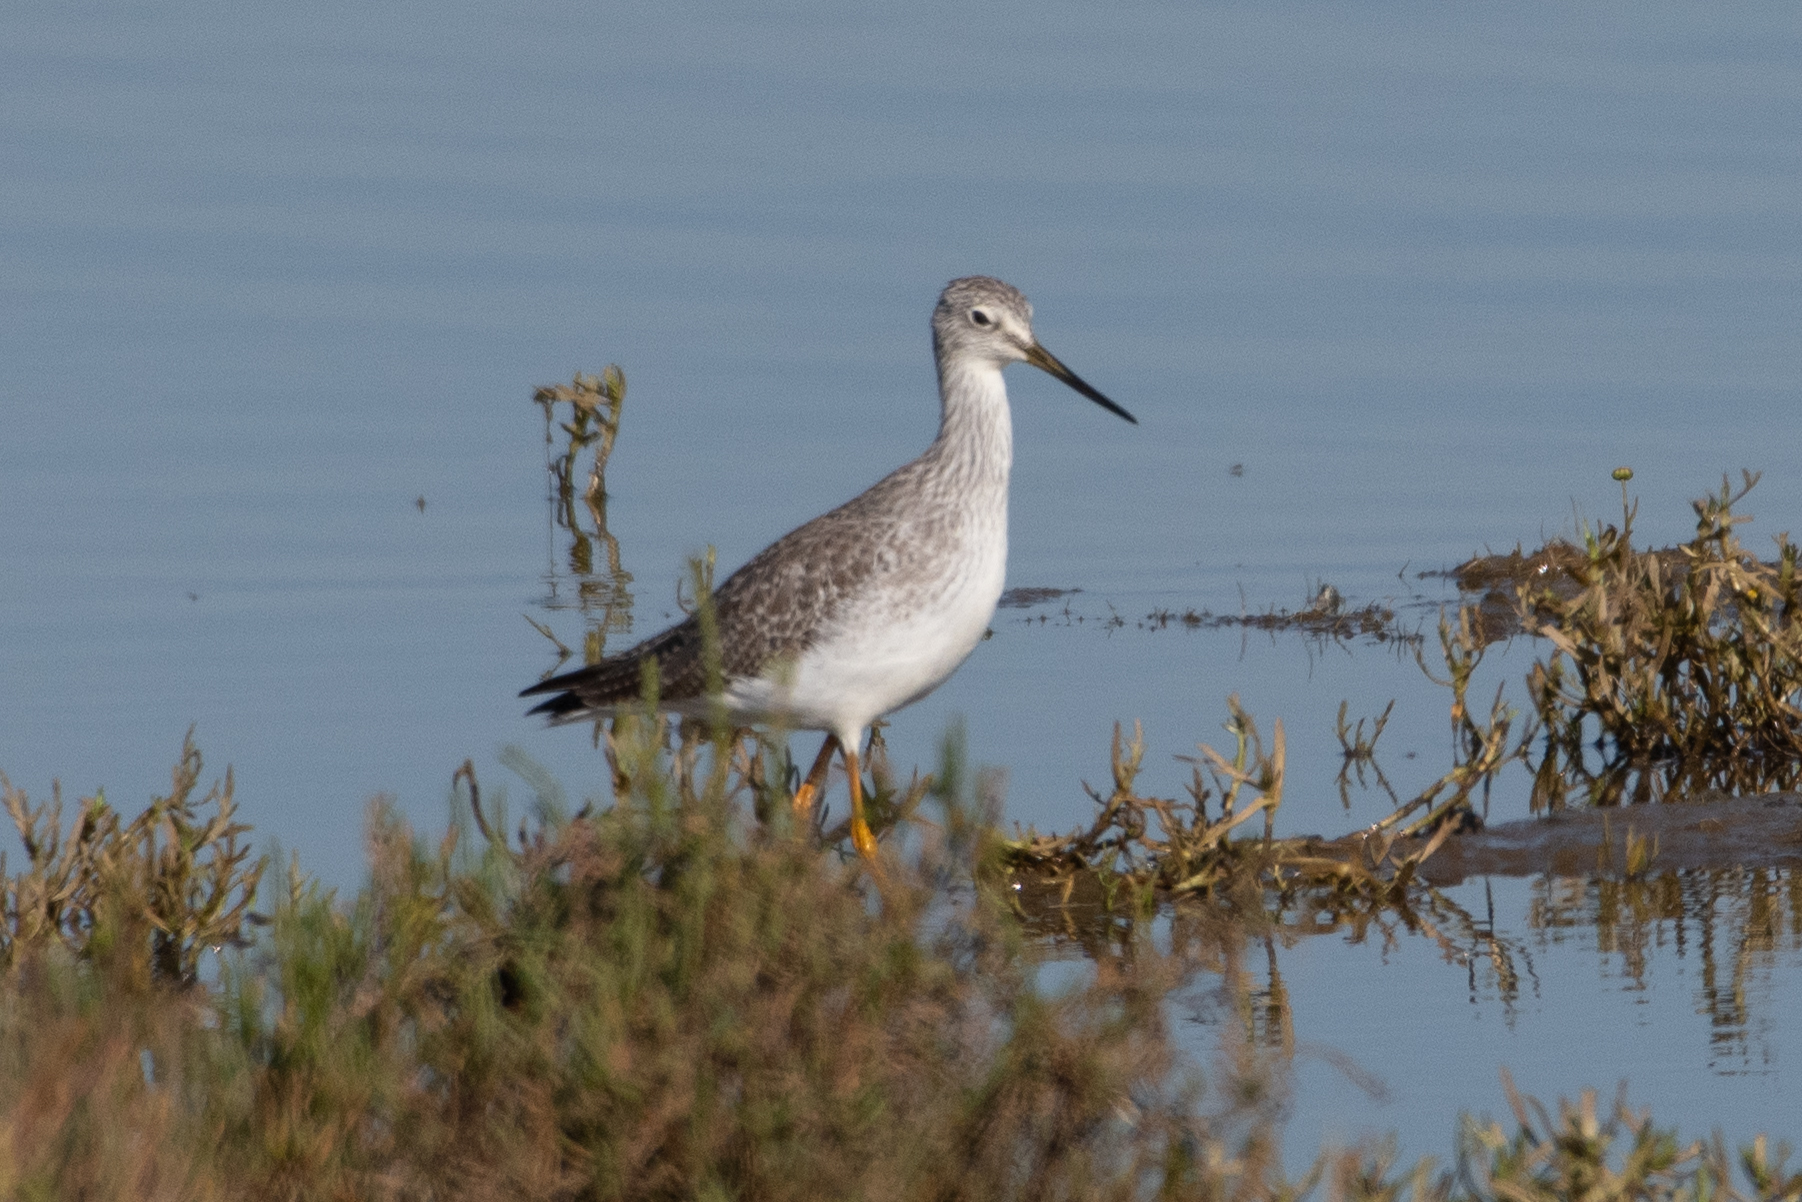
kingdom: Animalia
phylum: Chordata
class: Aves
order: Charadriiformes
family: Scolopacidae
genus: Tringa
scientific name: Tringa melanoleuca
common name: Greater yellowlegs
